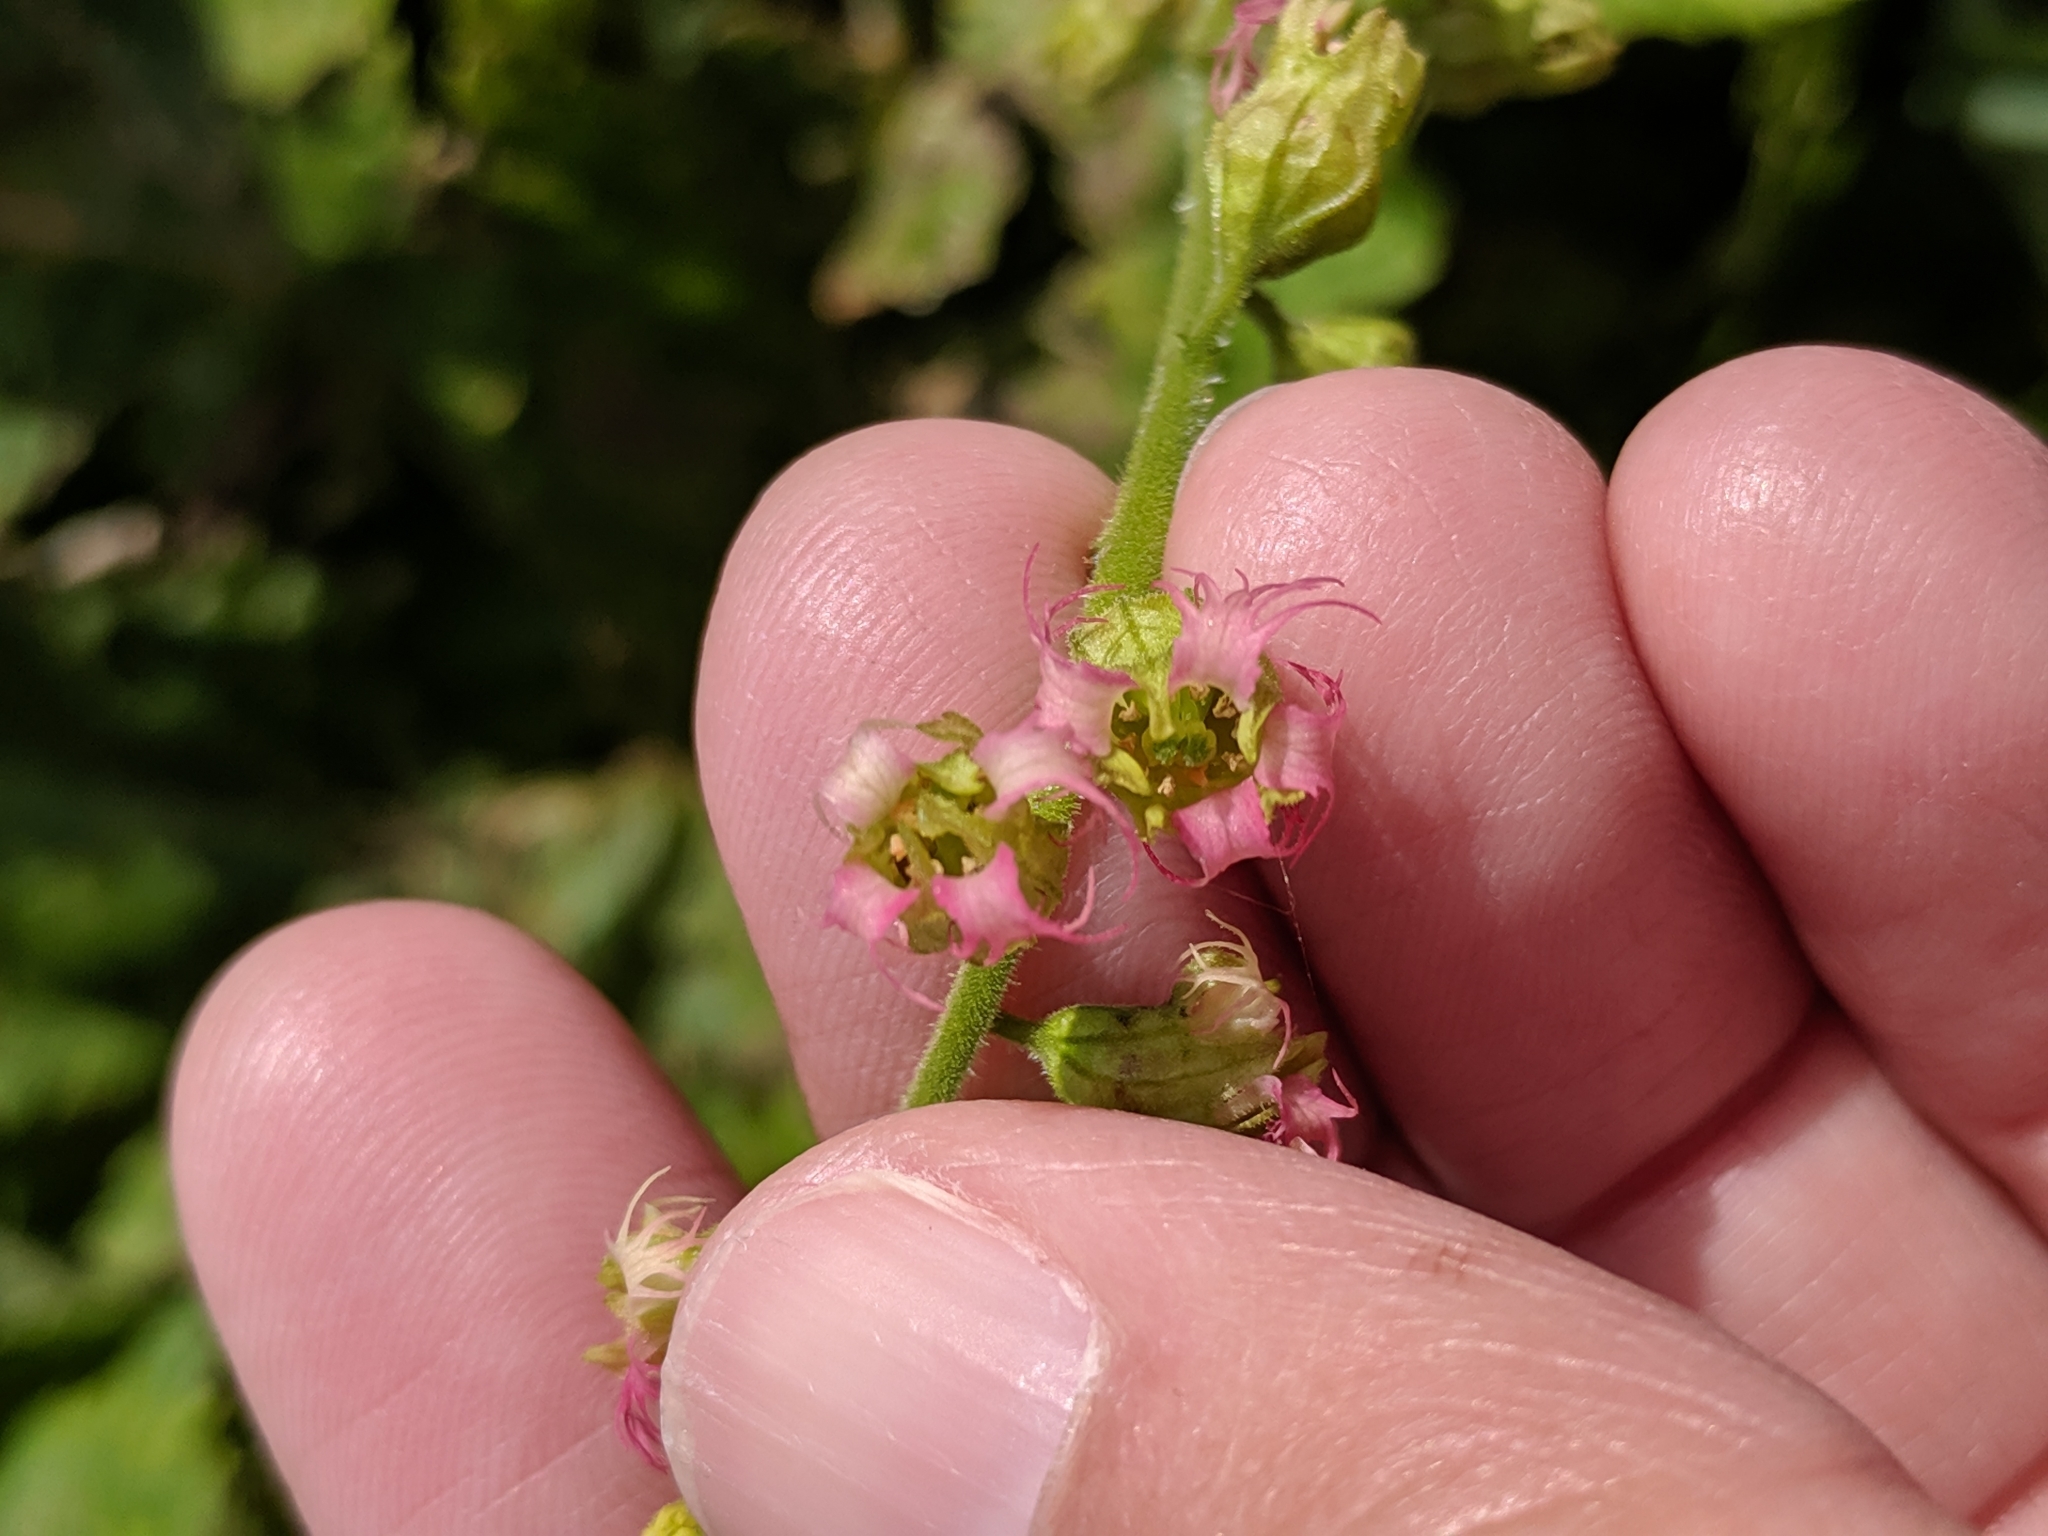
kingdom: Plantae
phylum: Tracheophyta
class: Magnoliopsida
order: Saxifragales
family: Saxifragaceae
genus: Tellima
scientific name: Tellima grandiflora
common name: Fringecups
